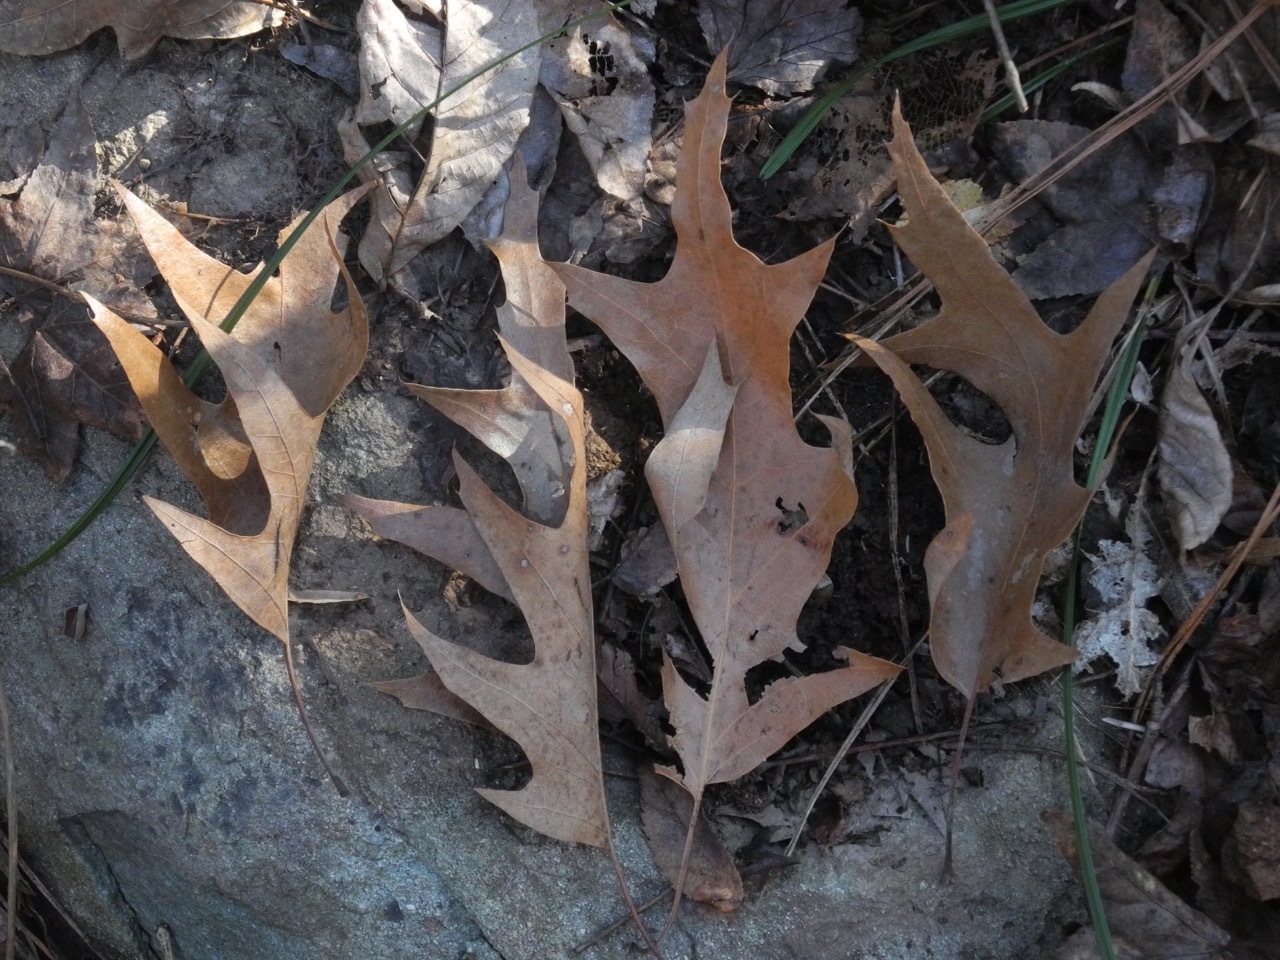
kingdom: Plantae
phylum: Tracheophyta
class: Magnoliopsida
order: Fagales
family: Fagaceae
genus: Quercus
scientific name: Quercus pagoda
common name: Cherrybark oak
